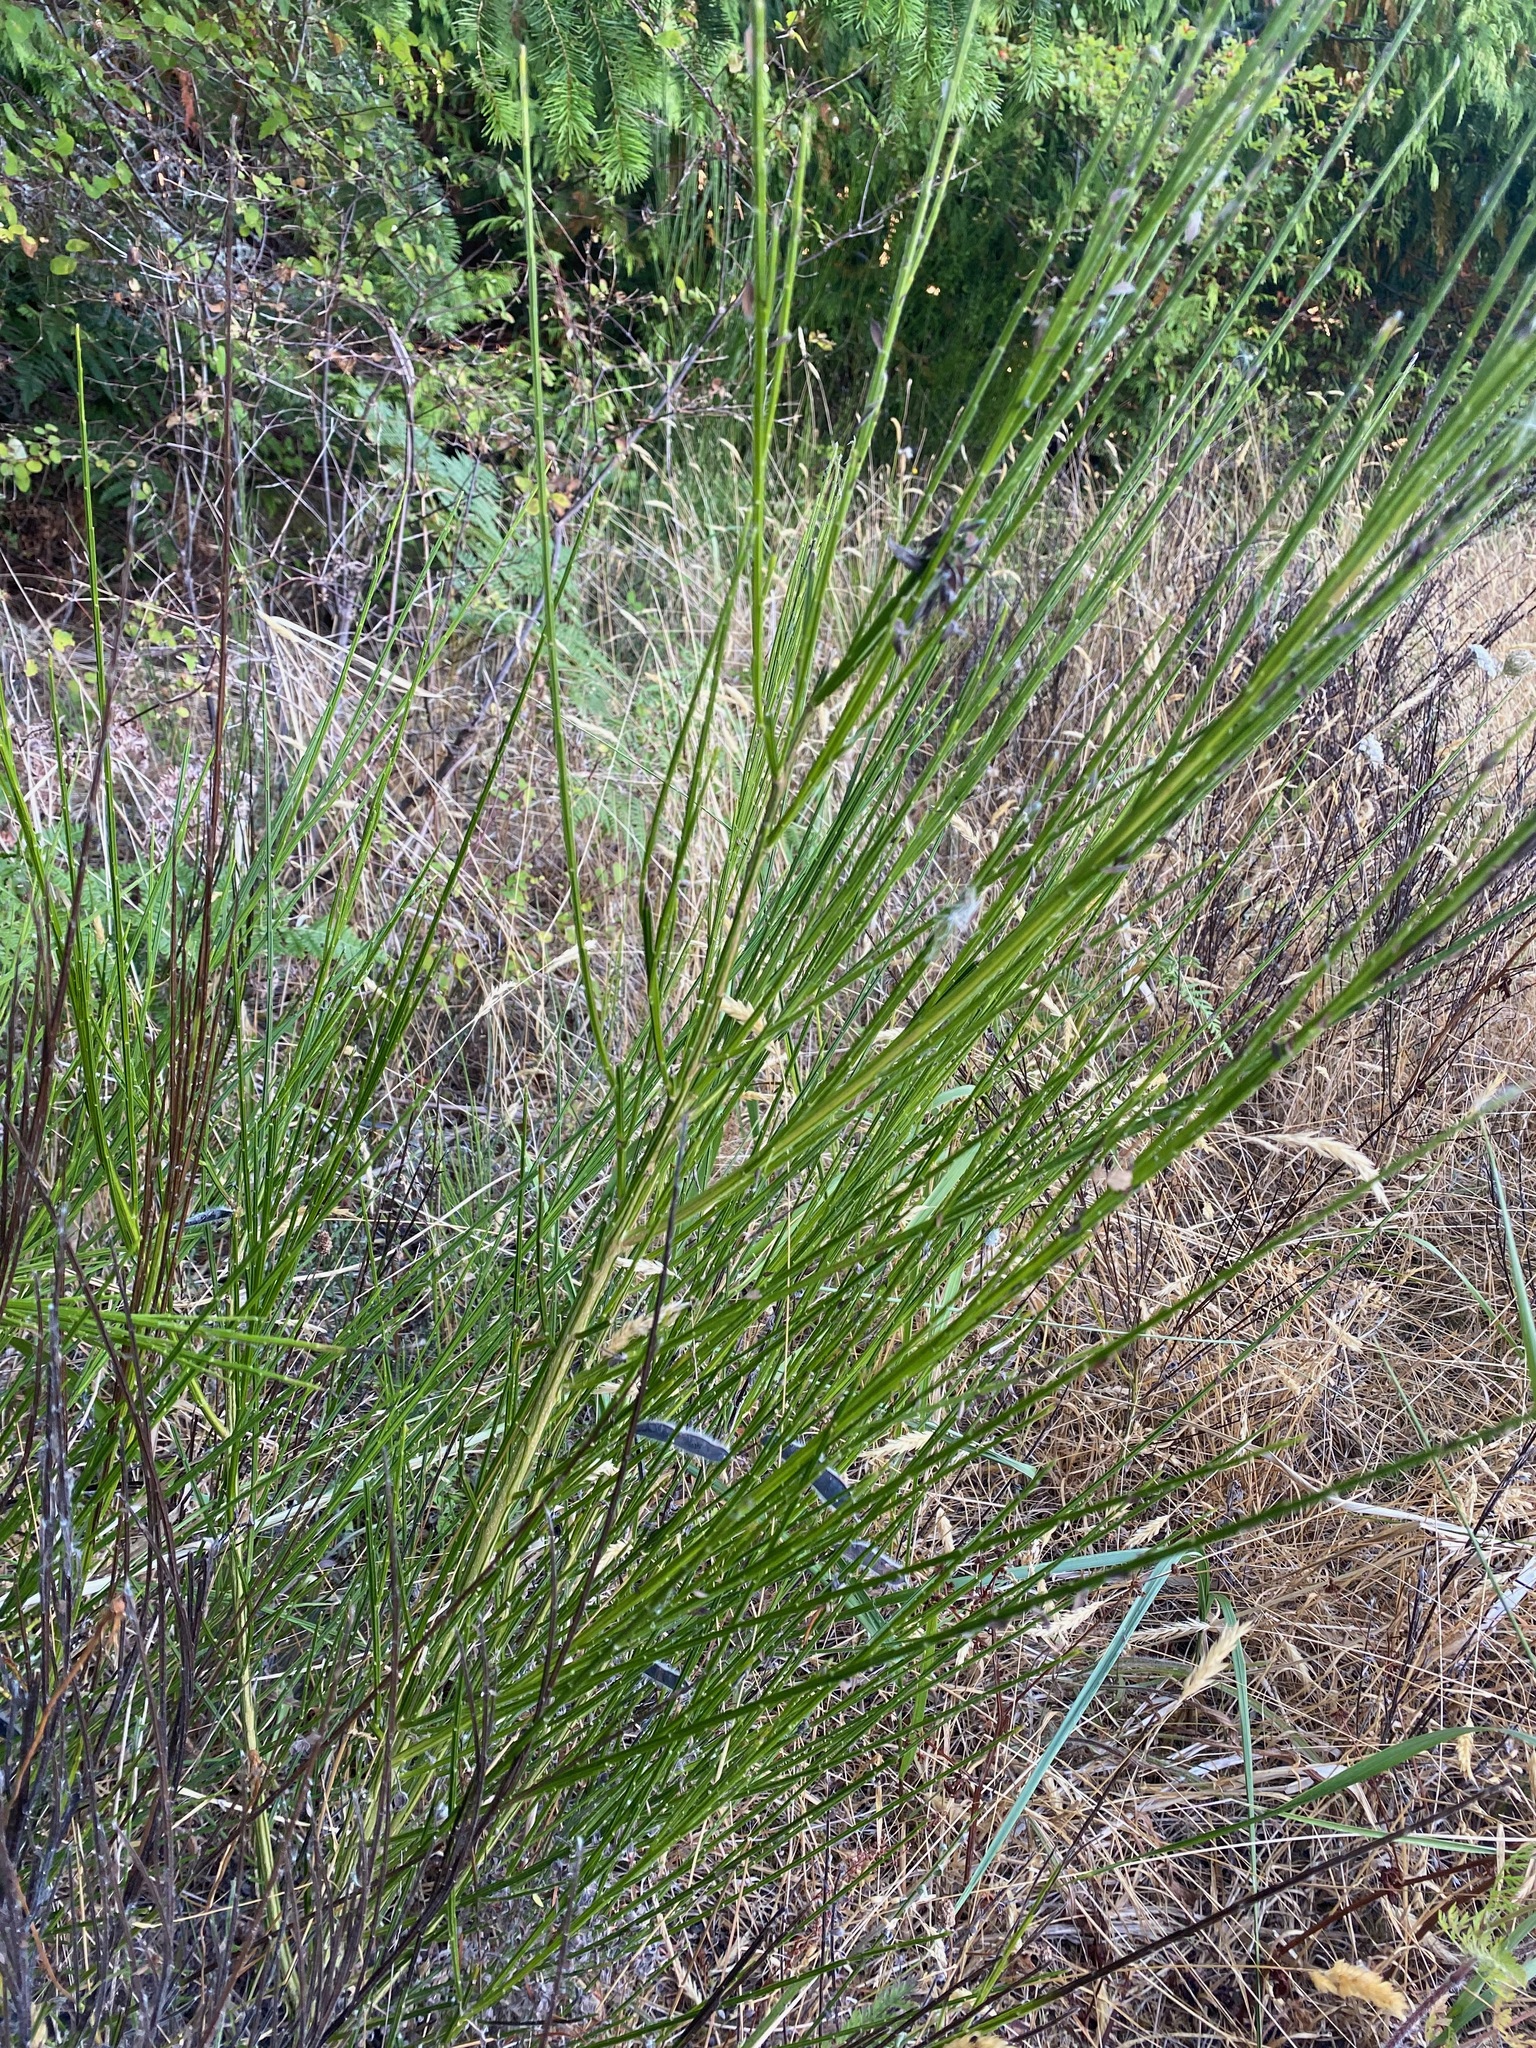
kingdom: Plantae
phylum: Tracheophyta
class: Magnoliopsida
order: Fabales
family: Fabaceae
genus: Cytisus
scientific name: Cytisus scoparius
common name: Scotch broom
